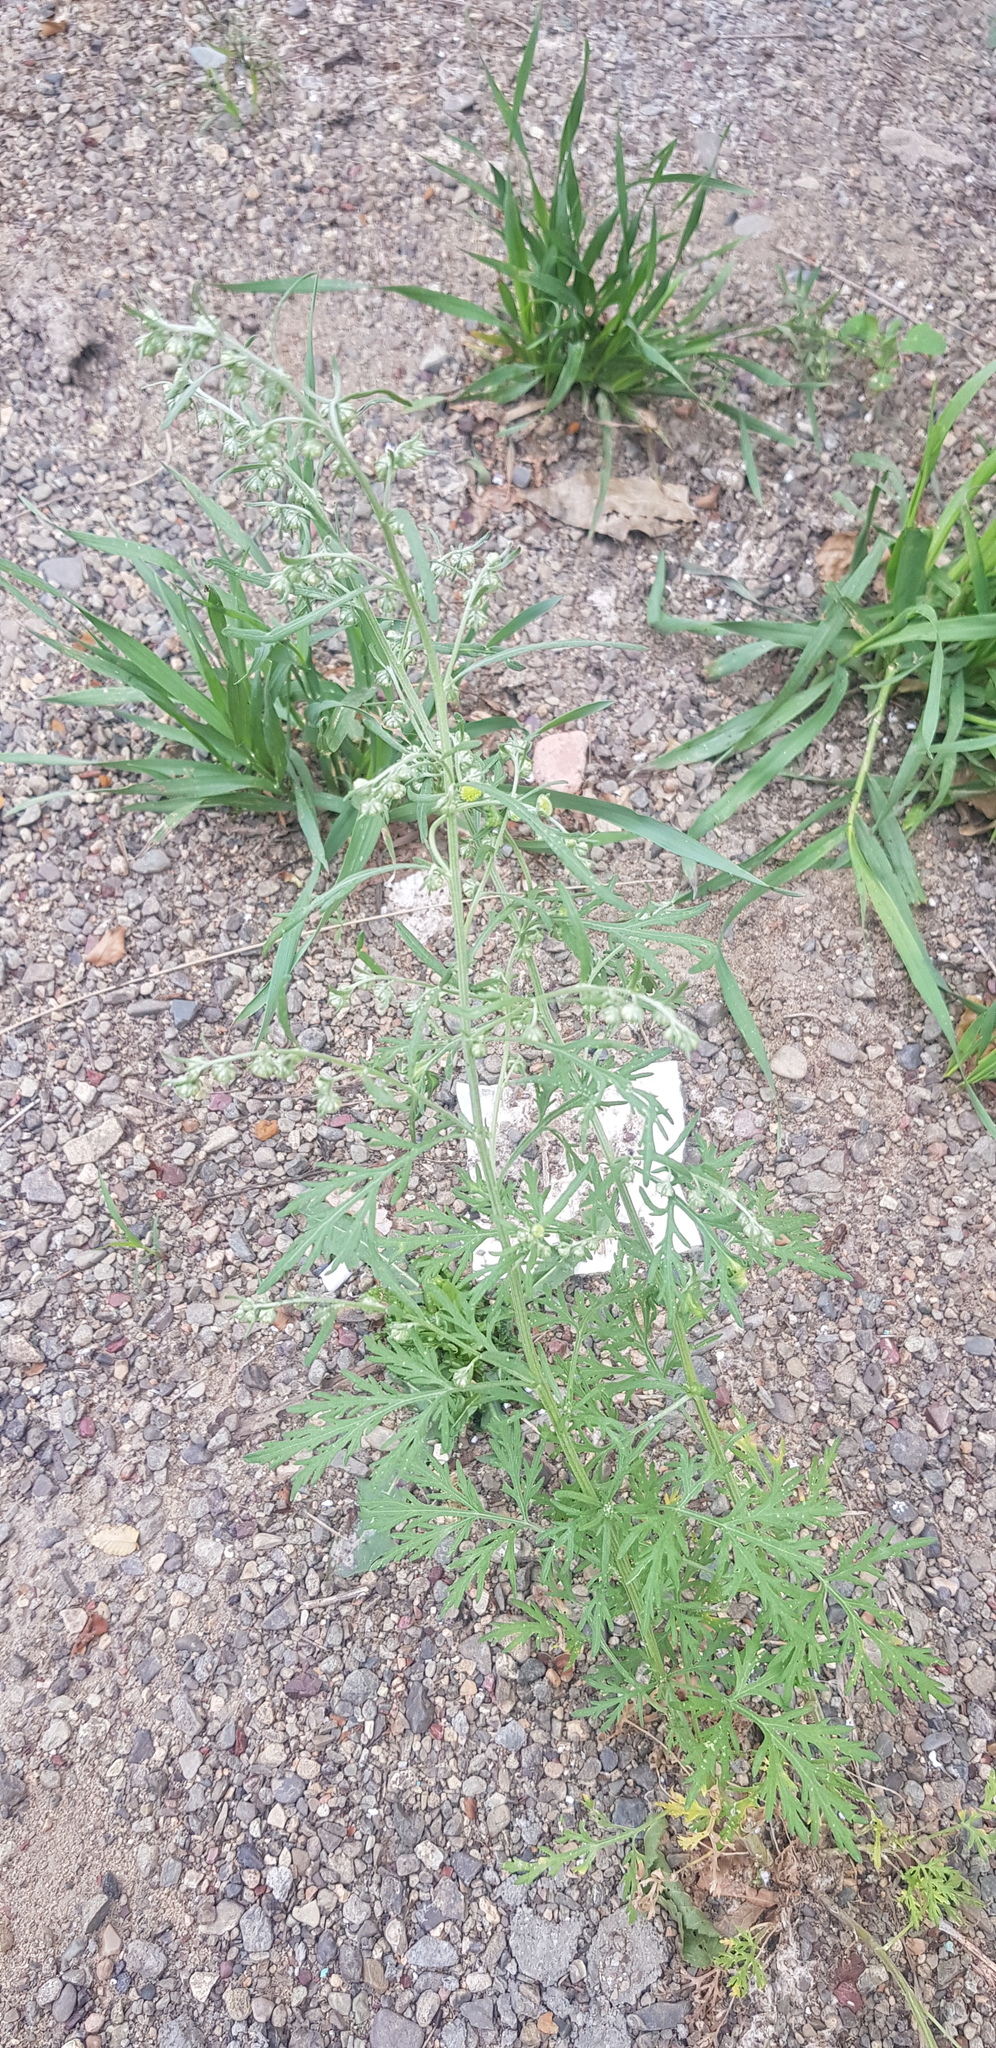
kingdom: Plantae
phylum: Tracheophyta
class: Magnoliopsida
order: Asterales
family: Asteraceae
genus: Artemisia
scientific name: Artemisia sieversiana
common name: Sieversian wormwood
